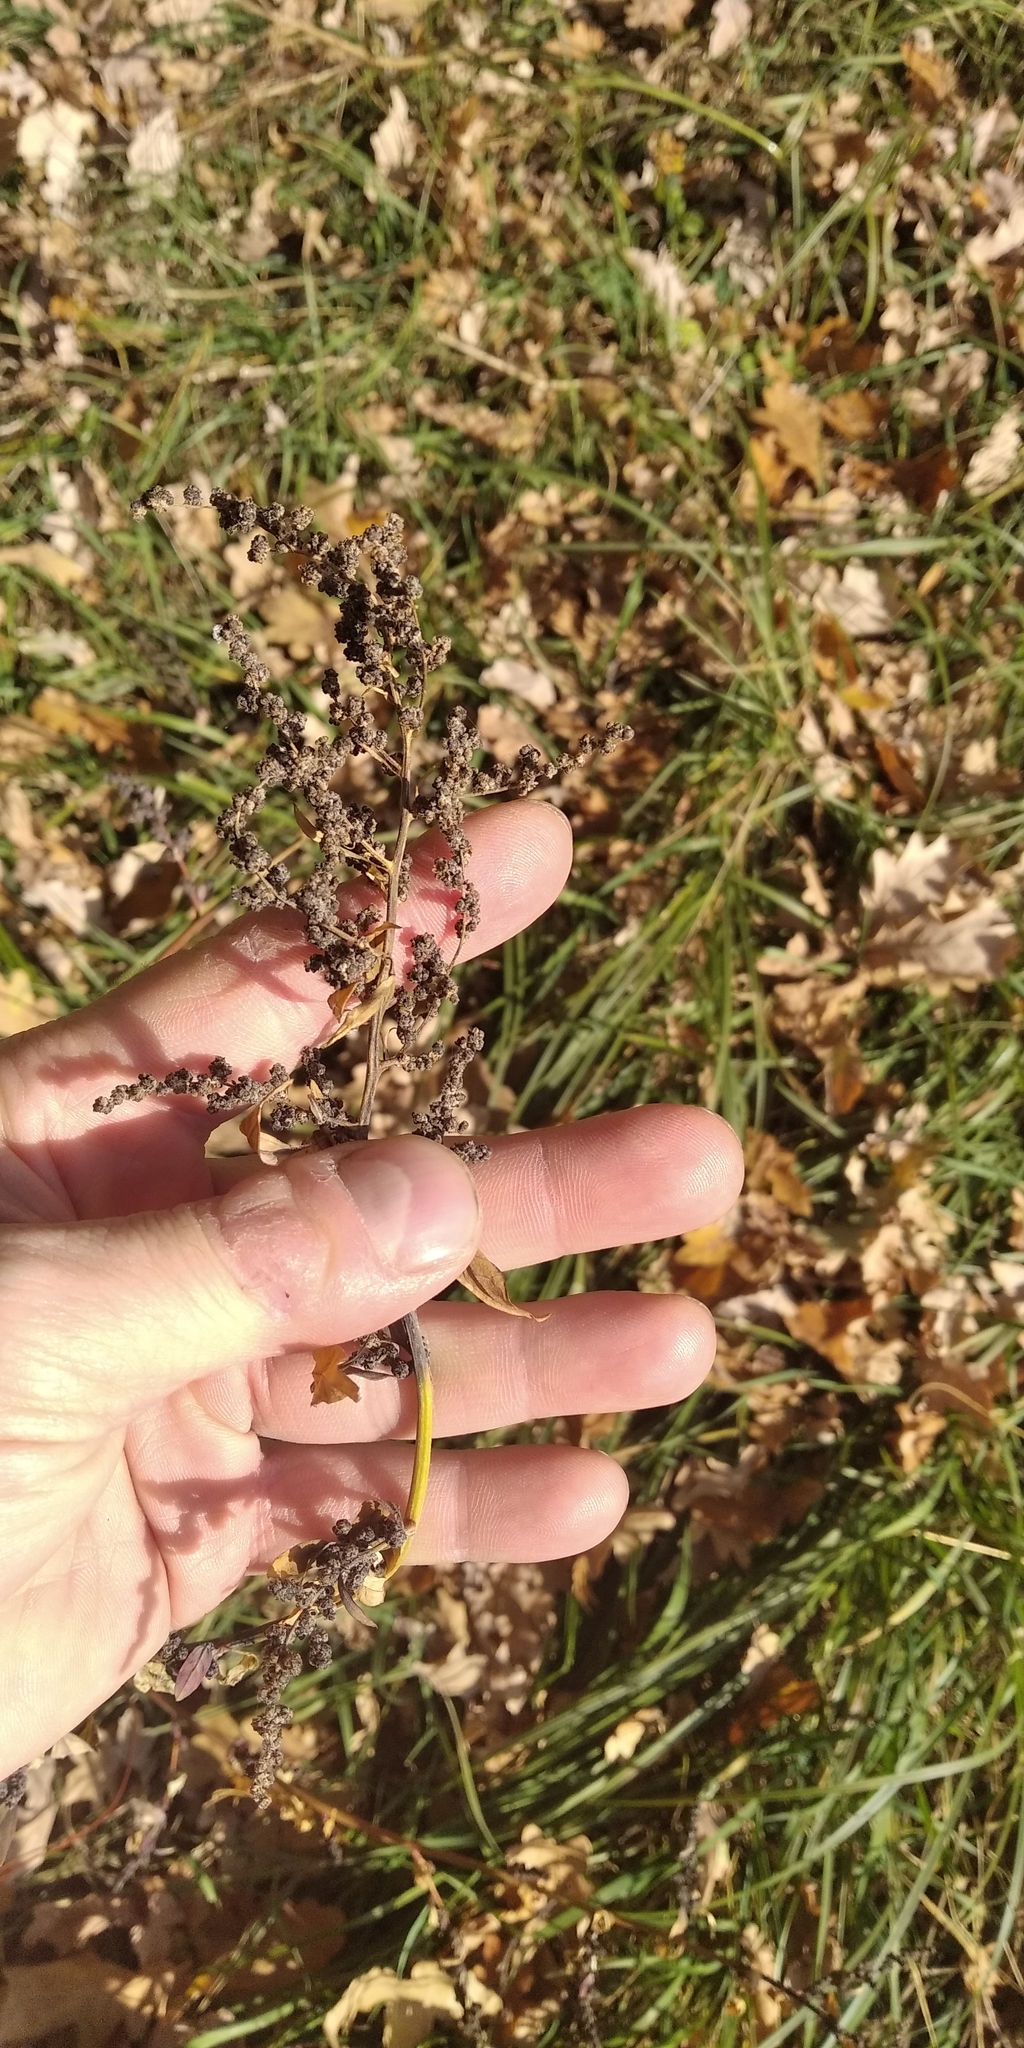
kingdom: Plantae
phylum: Tracheophyta
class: Magnoliopsida
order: Caryophyllales
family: Amaranthaceae
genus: Chenopodium
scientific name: Chenopodium album
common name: Fat-hen
